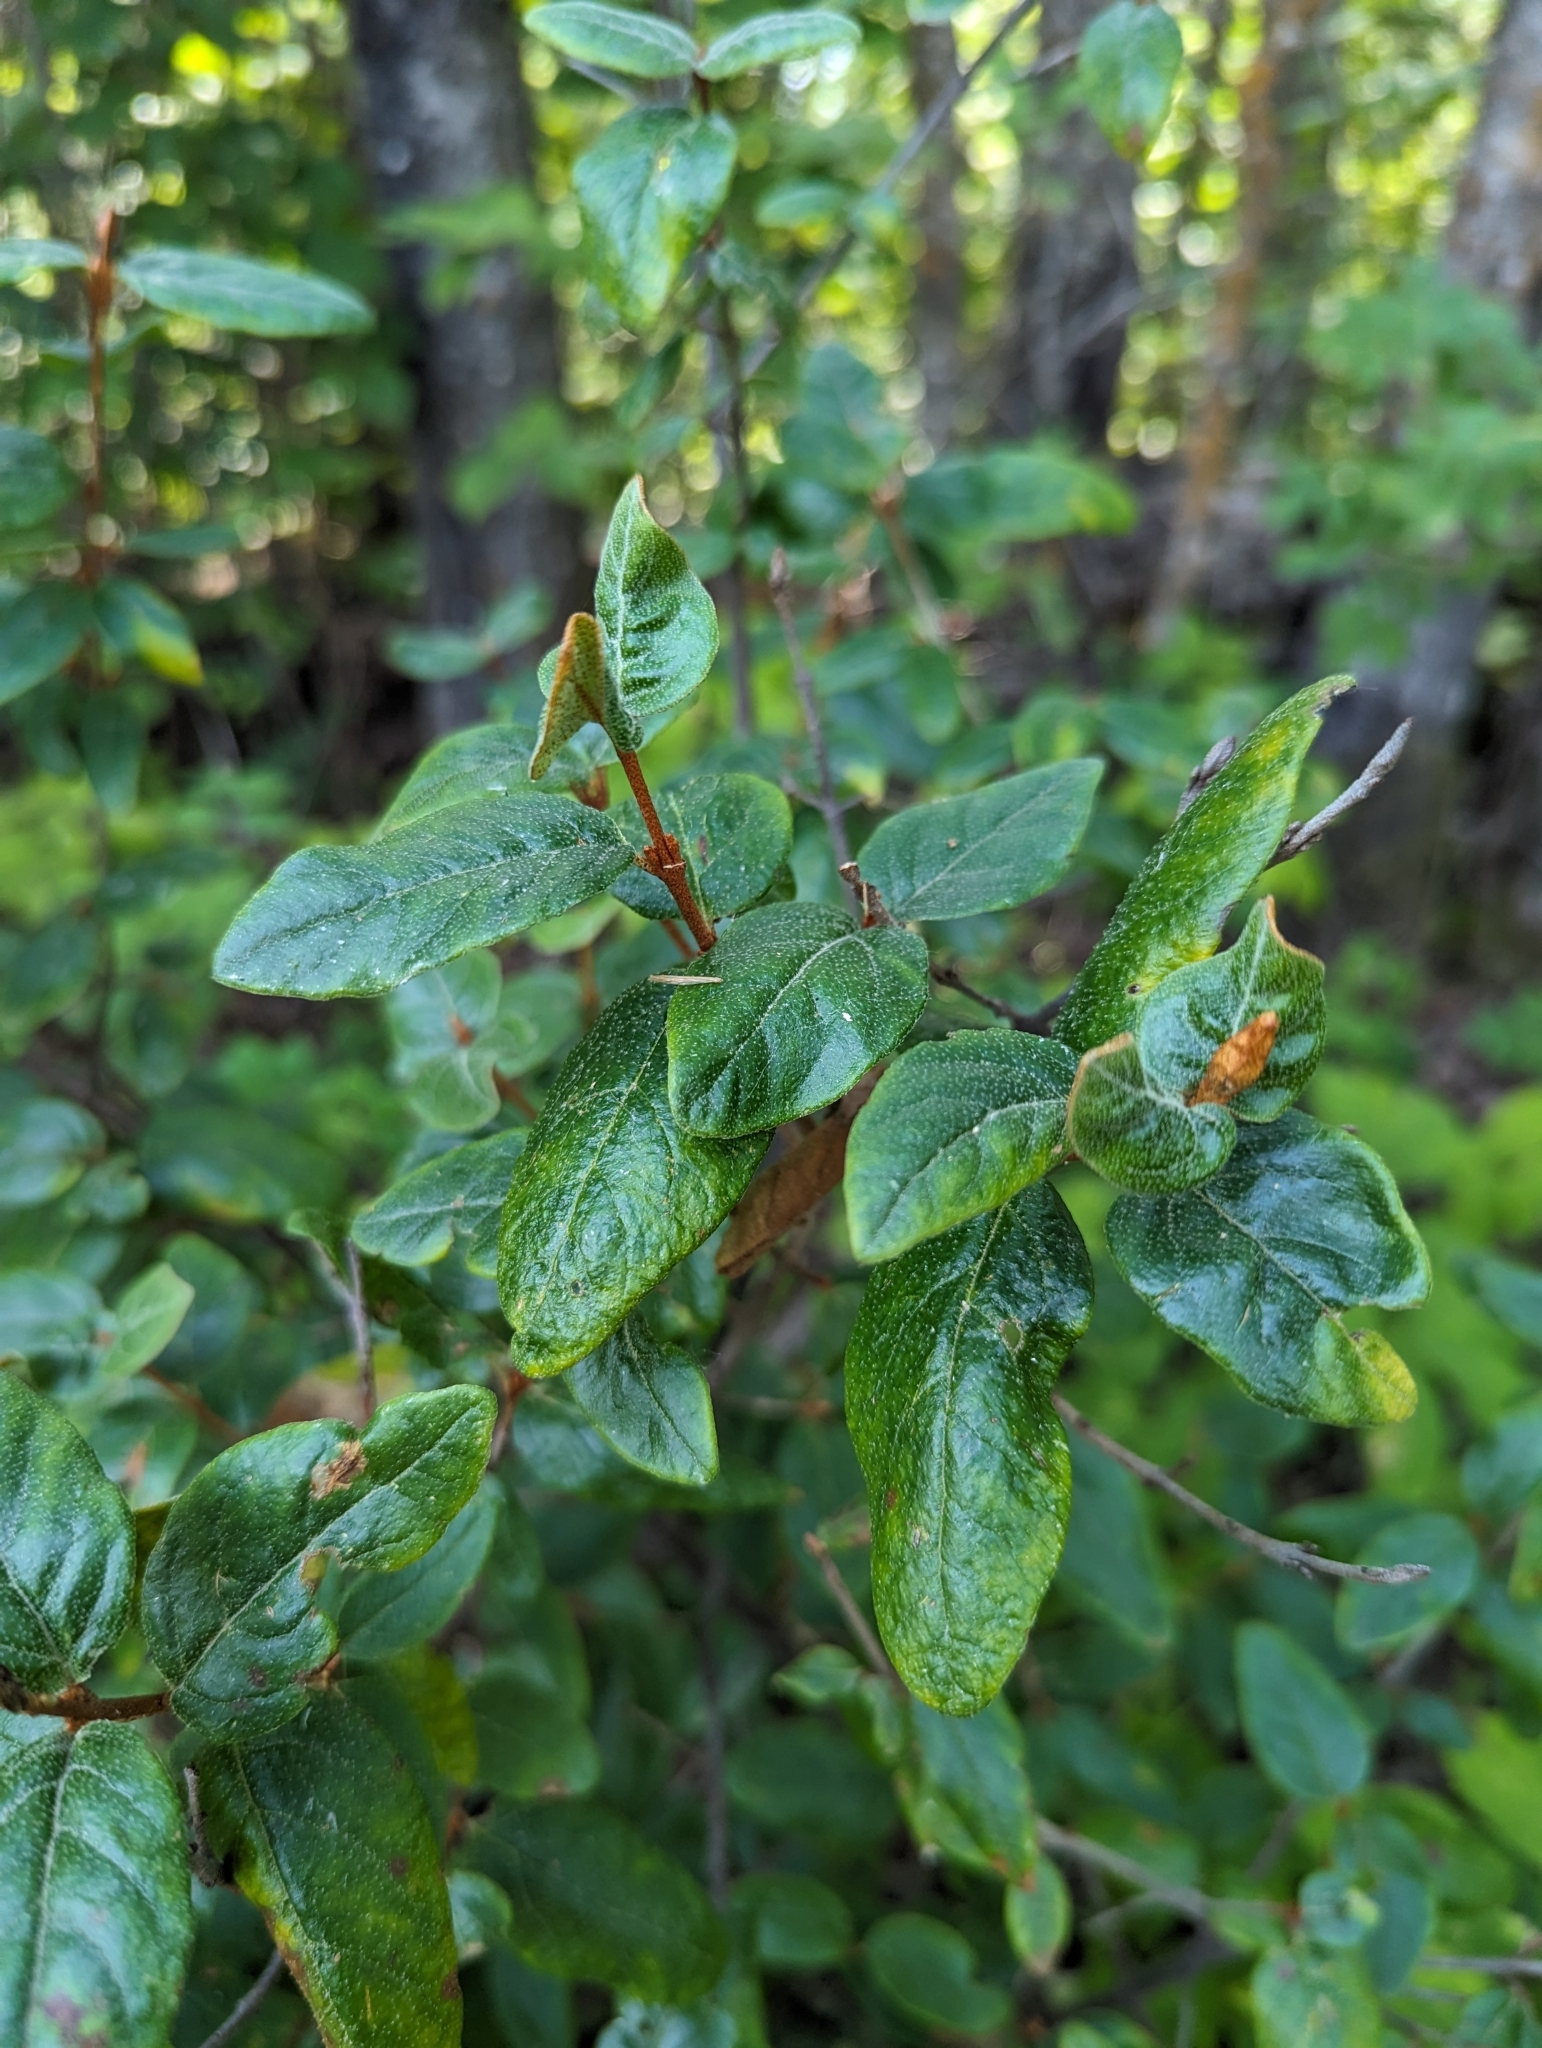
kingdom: Plantae
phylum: Tracheophyta
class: Magnoliopsida
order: Rosales
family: Elaeagnaceae
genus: Shepherdia
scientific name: Shepherdia canadensis
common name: Soapberry
